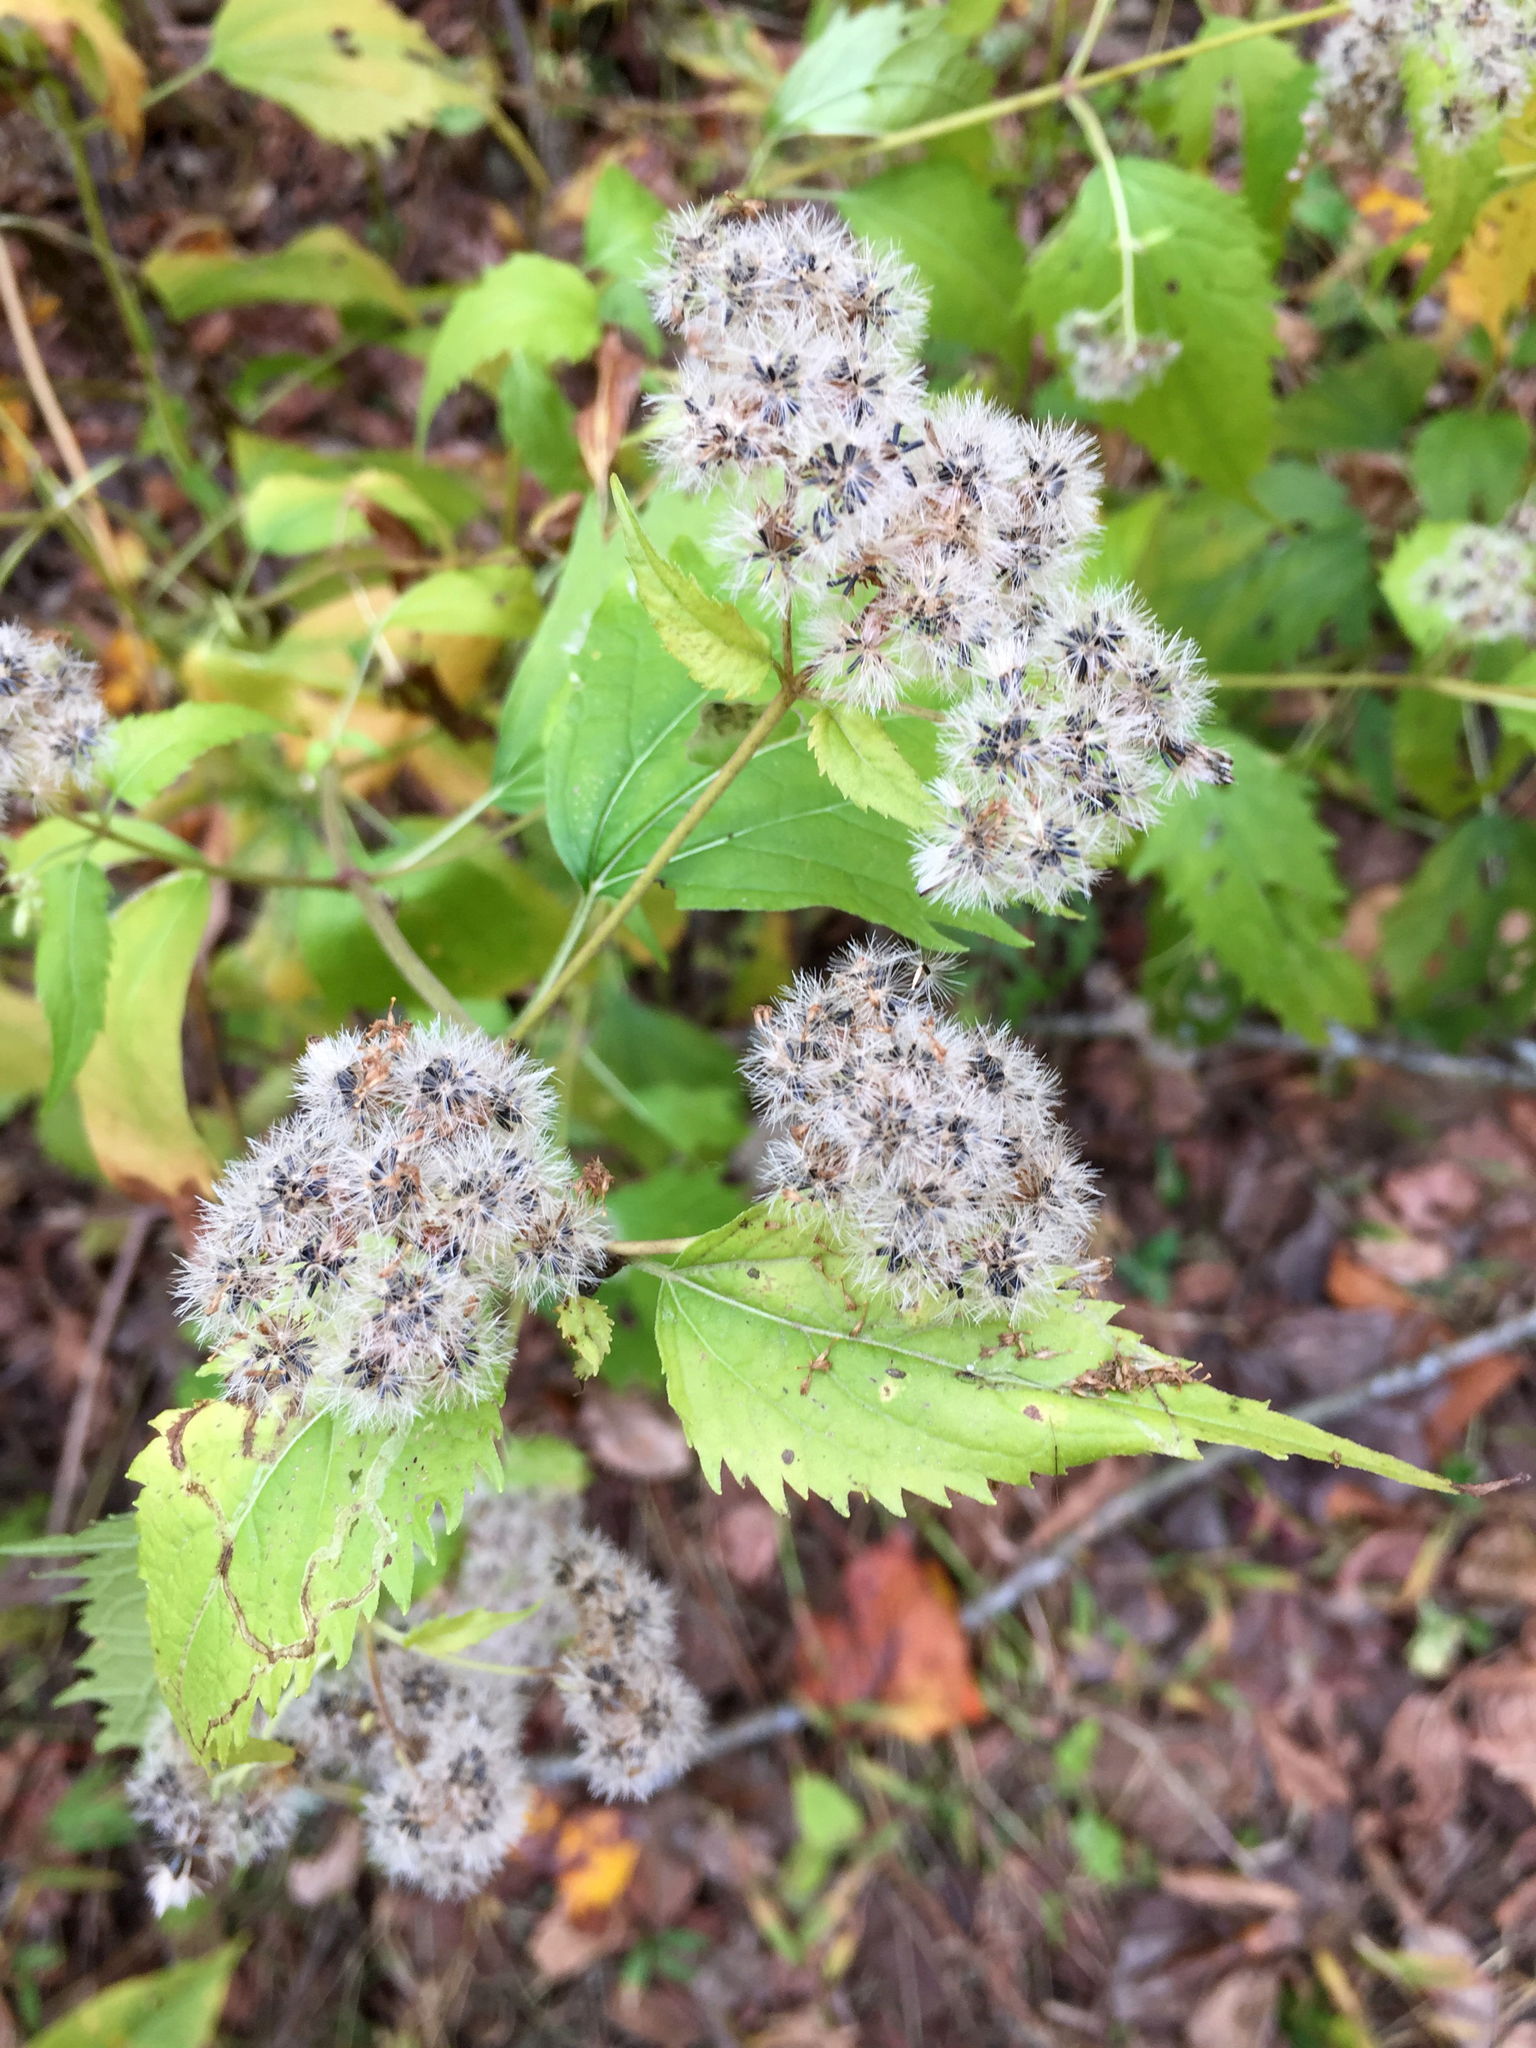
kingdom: Plantae
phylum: Tracheophyta
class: Magnoliopsida
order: Asterales
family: Asteraceae
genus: Ageratina
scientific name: Ageratina altissima
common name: White snakeroot
